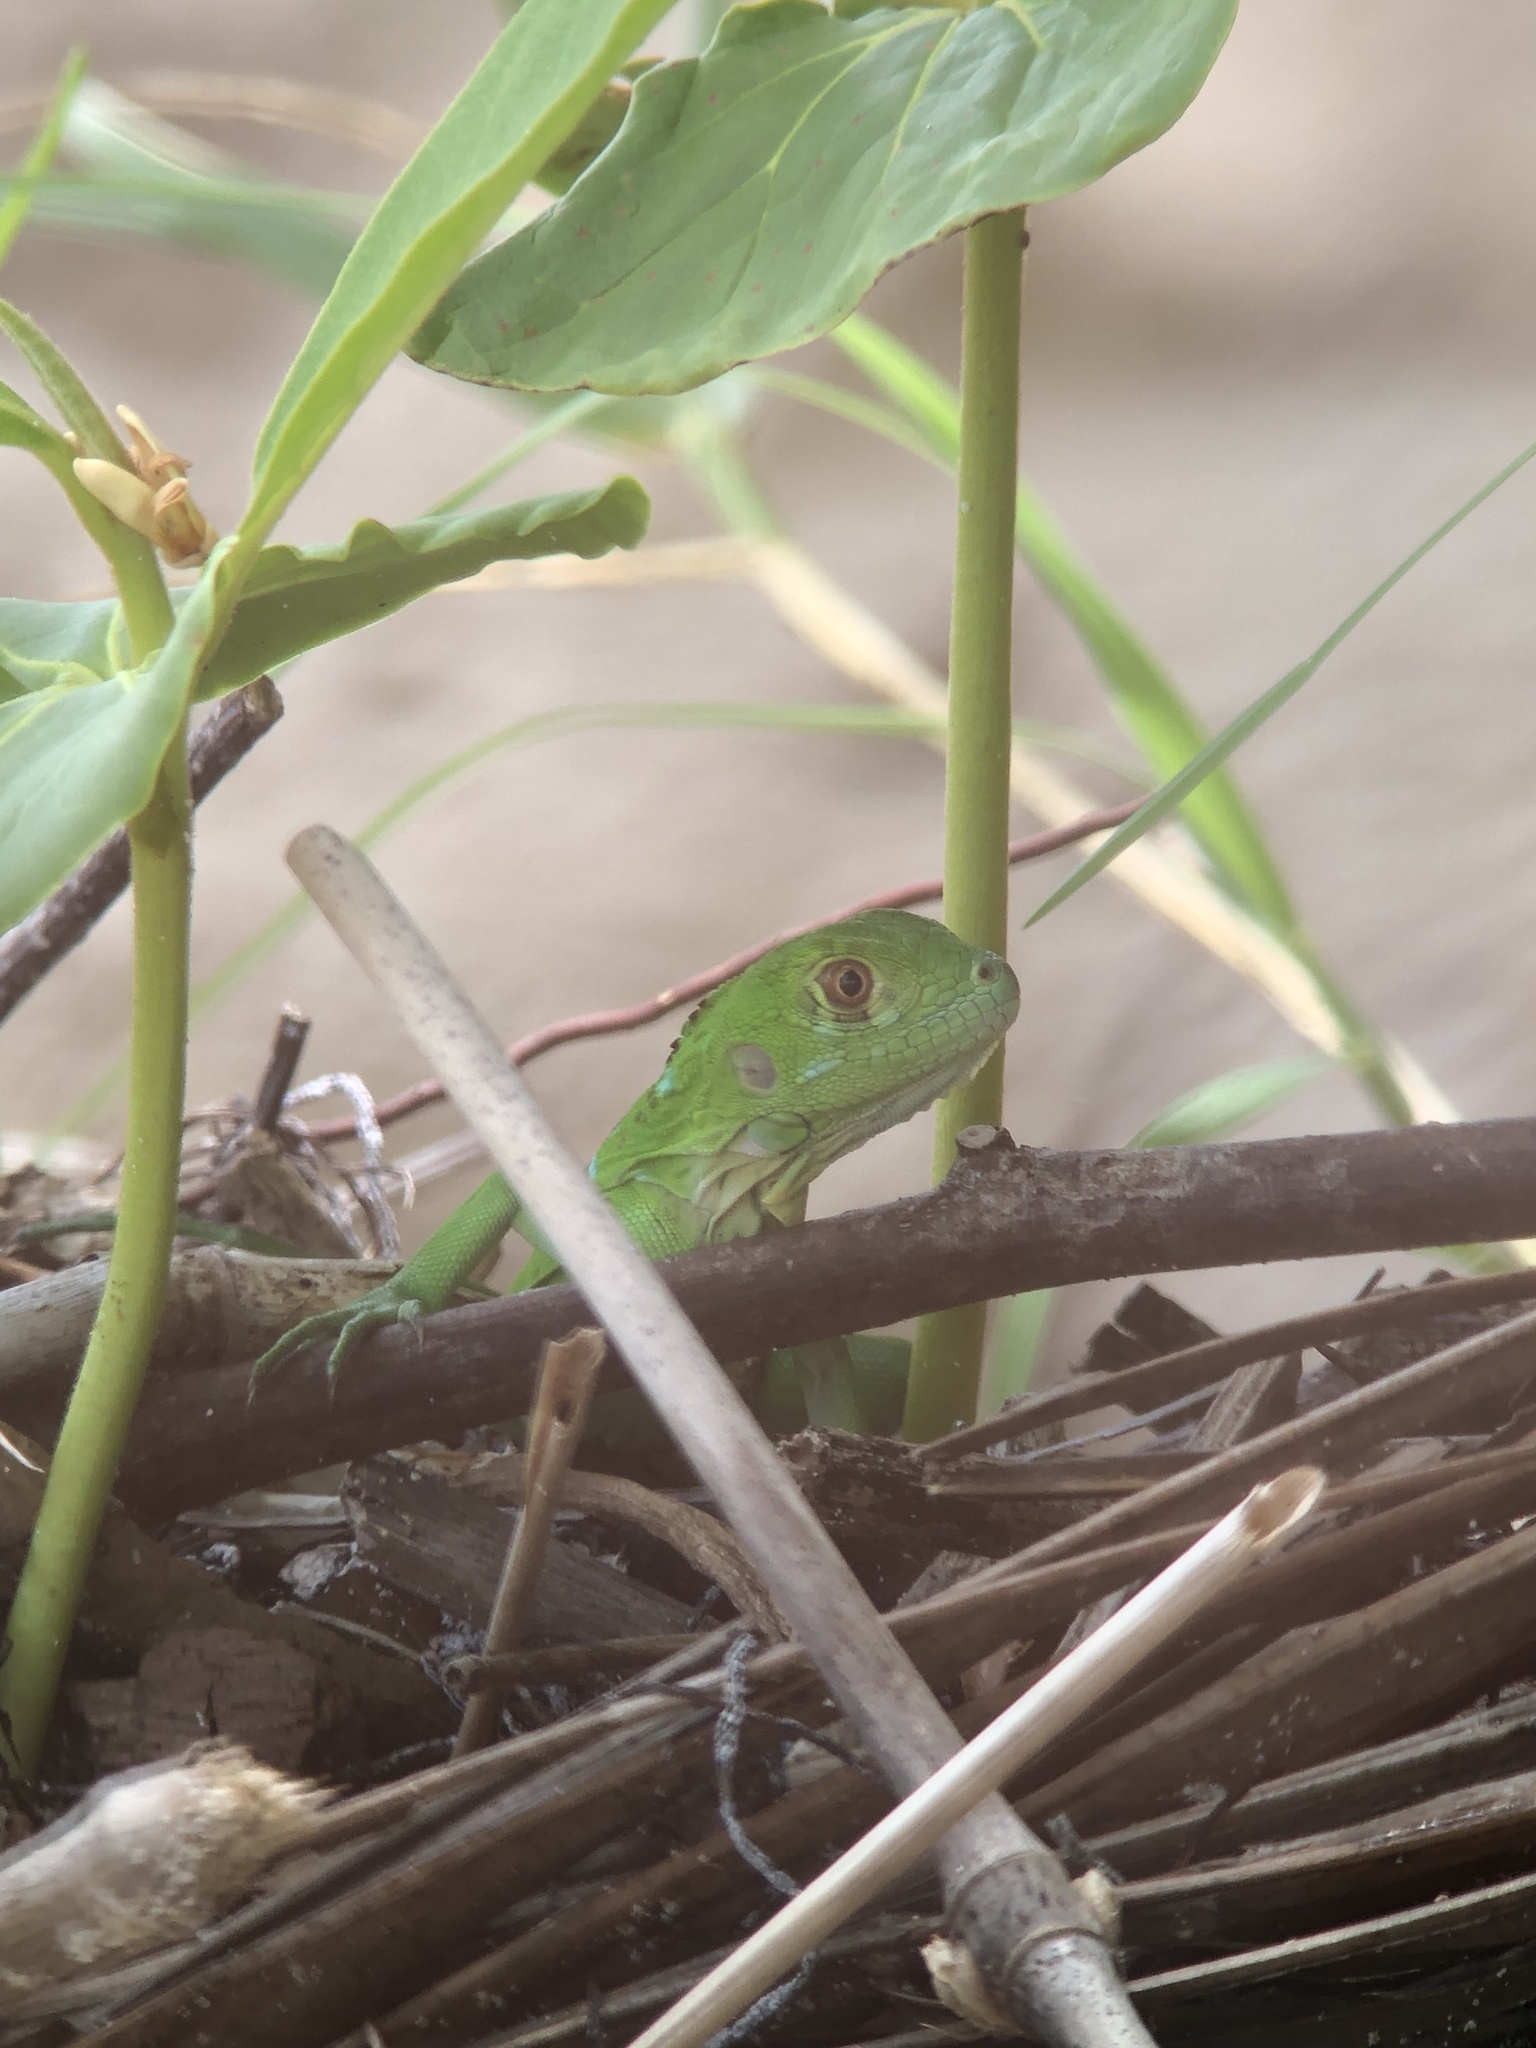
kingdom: Animalia
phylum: Chordata
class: Squamata
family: Iguanidae
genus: Iguana
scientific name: Iguana iguana
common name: Green iguana
